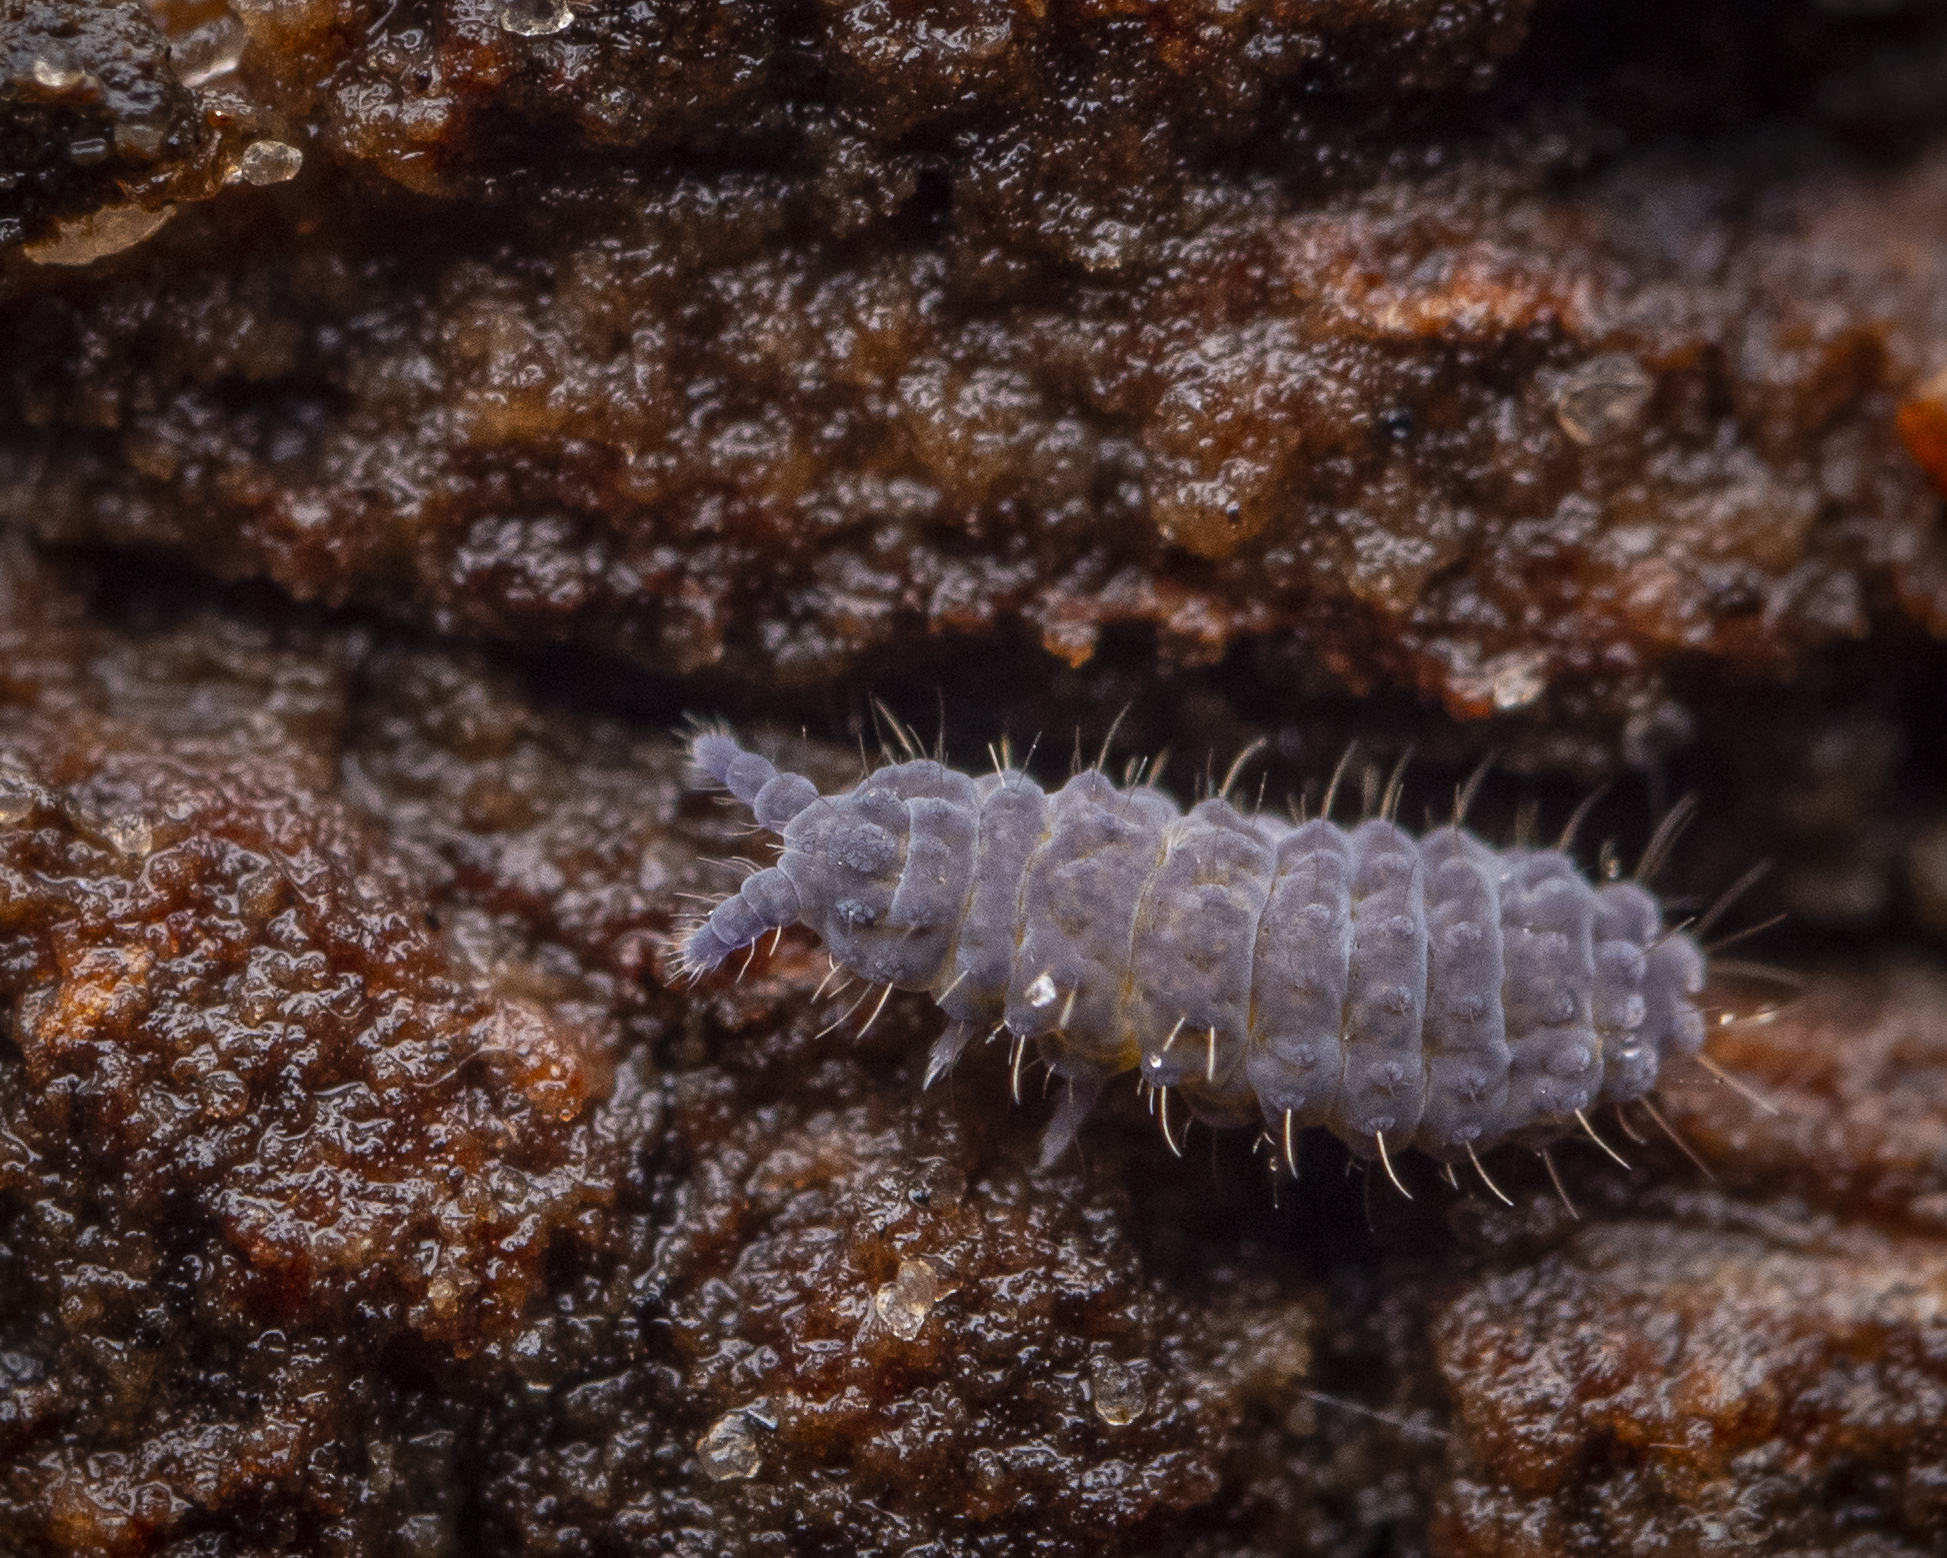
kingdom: Animalia
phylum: Arthropoda
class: Collembola
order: Poduromorpha
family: Neanuridae
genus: Neanura
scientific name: Neanura muscorum
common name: Springtail
